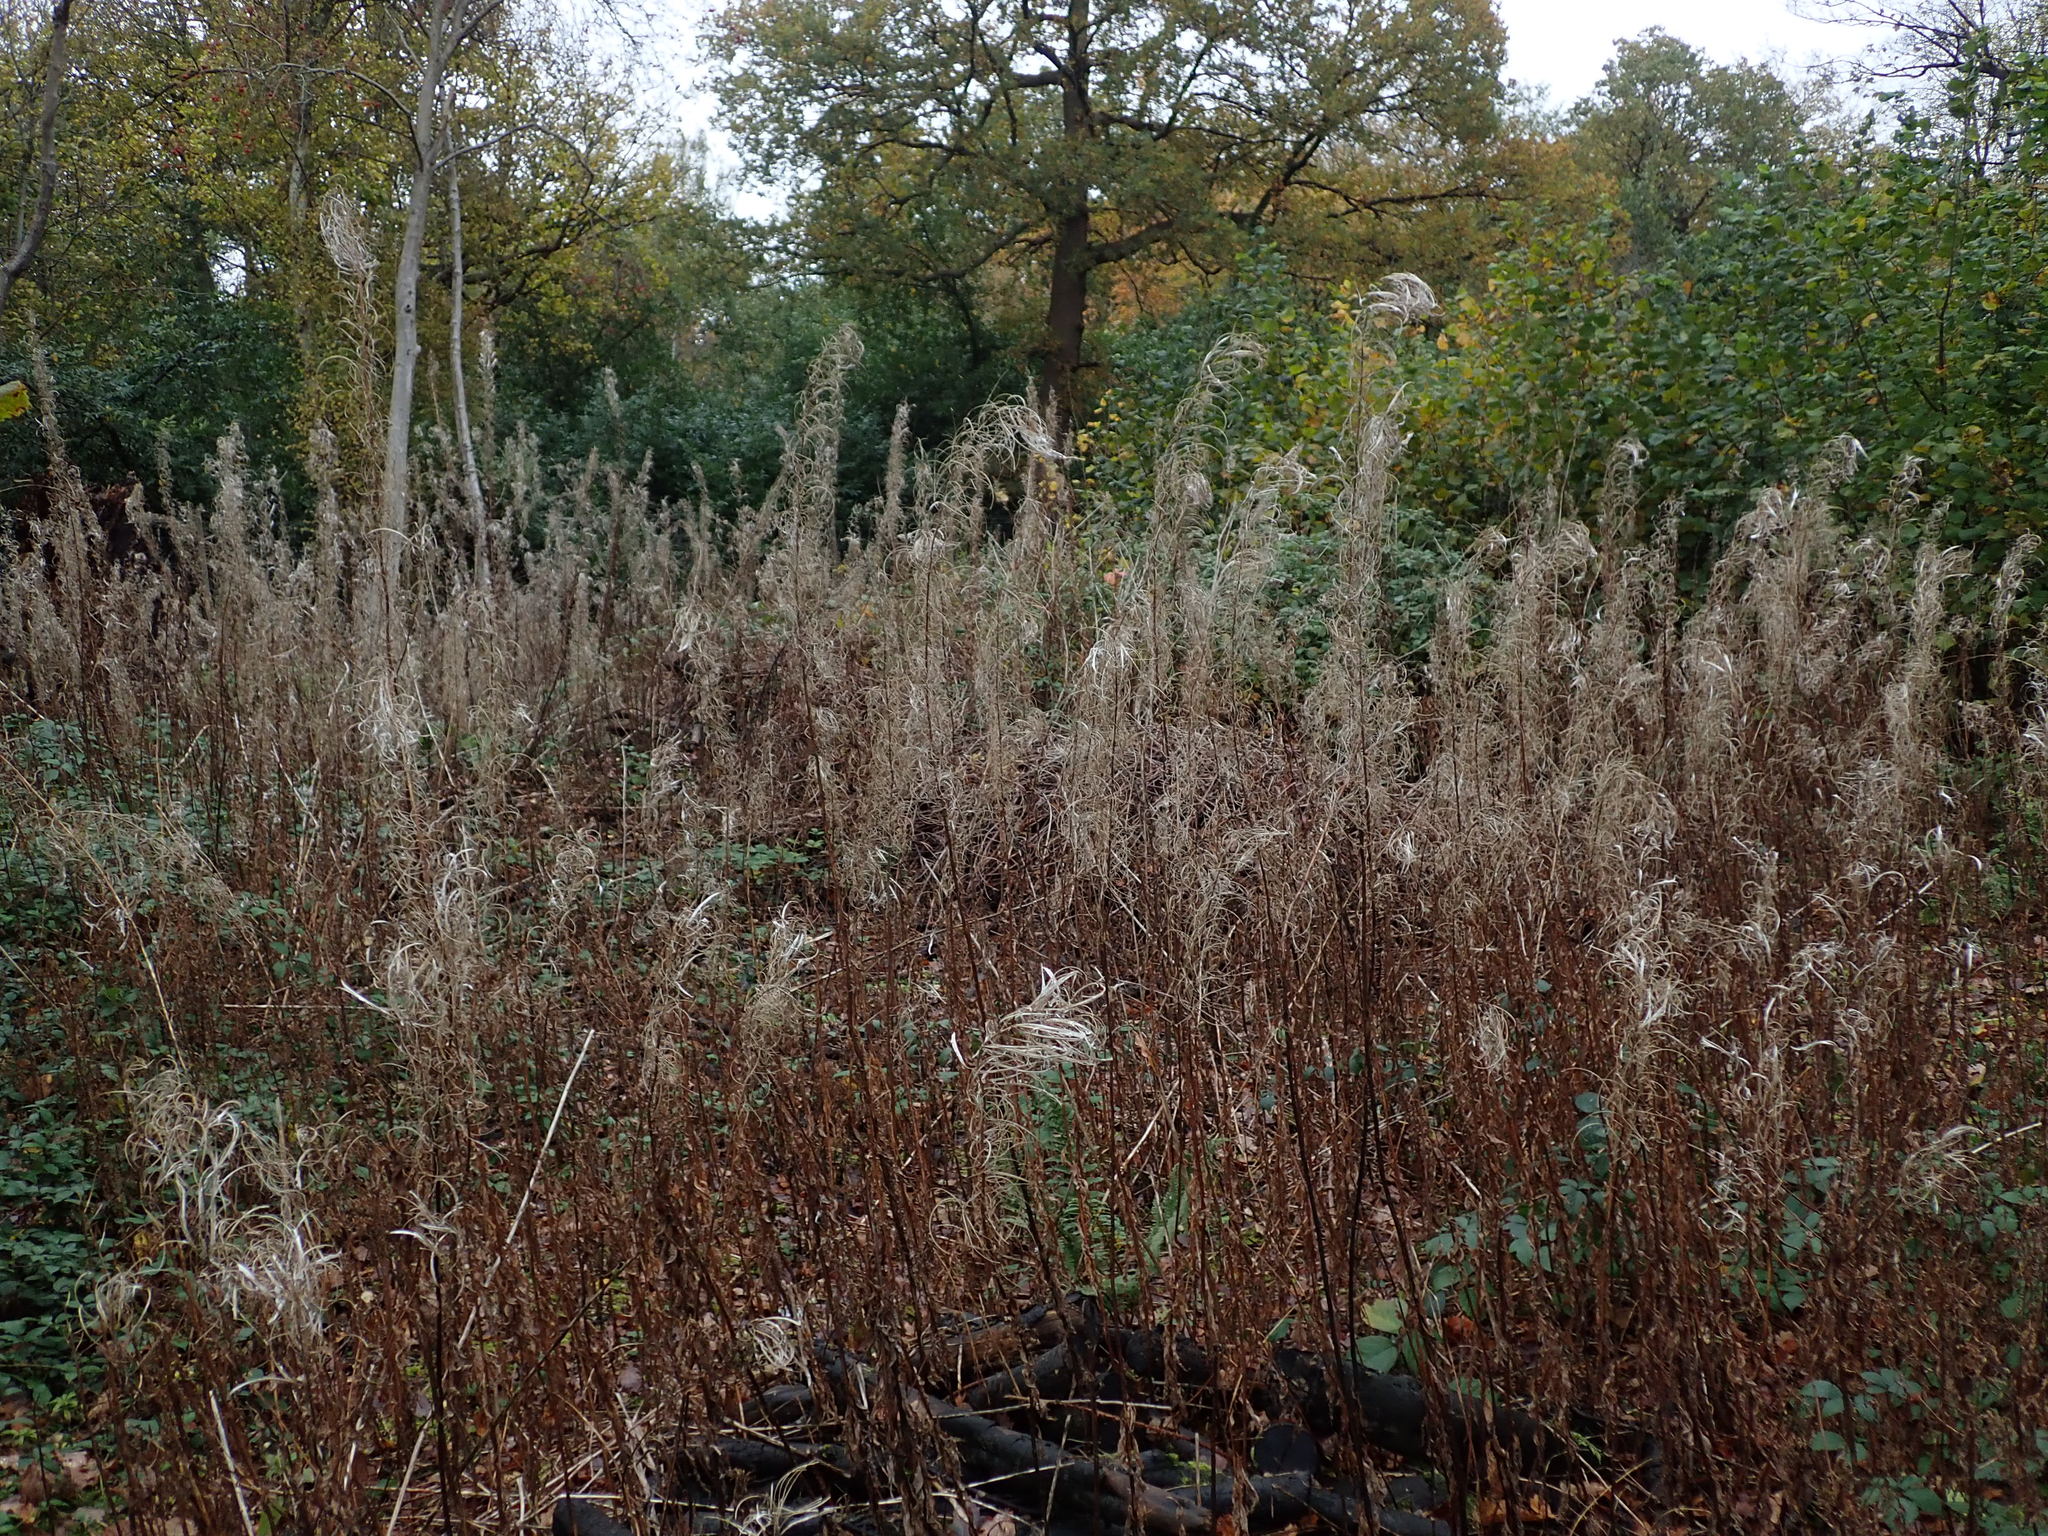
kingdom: Plantae
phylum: Tracheophyta
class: Magnoliopsida
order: Myrtales
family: Onagraceae
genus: Chamaenerion
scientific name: Chamaenerion angustifolium
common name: Fireweed
